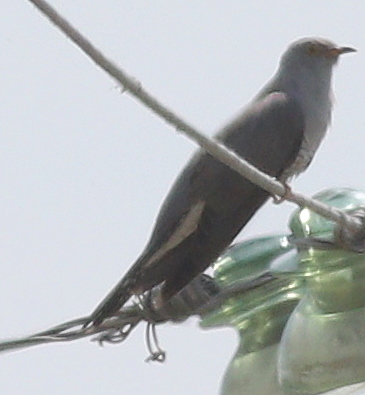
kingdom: Animalia
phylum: Chordata
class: Aves
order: Cuculiformes
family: Cuculidae
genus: Cuculus
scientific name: Cuculus canorus
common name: Common cuckoo
